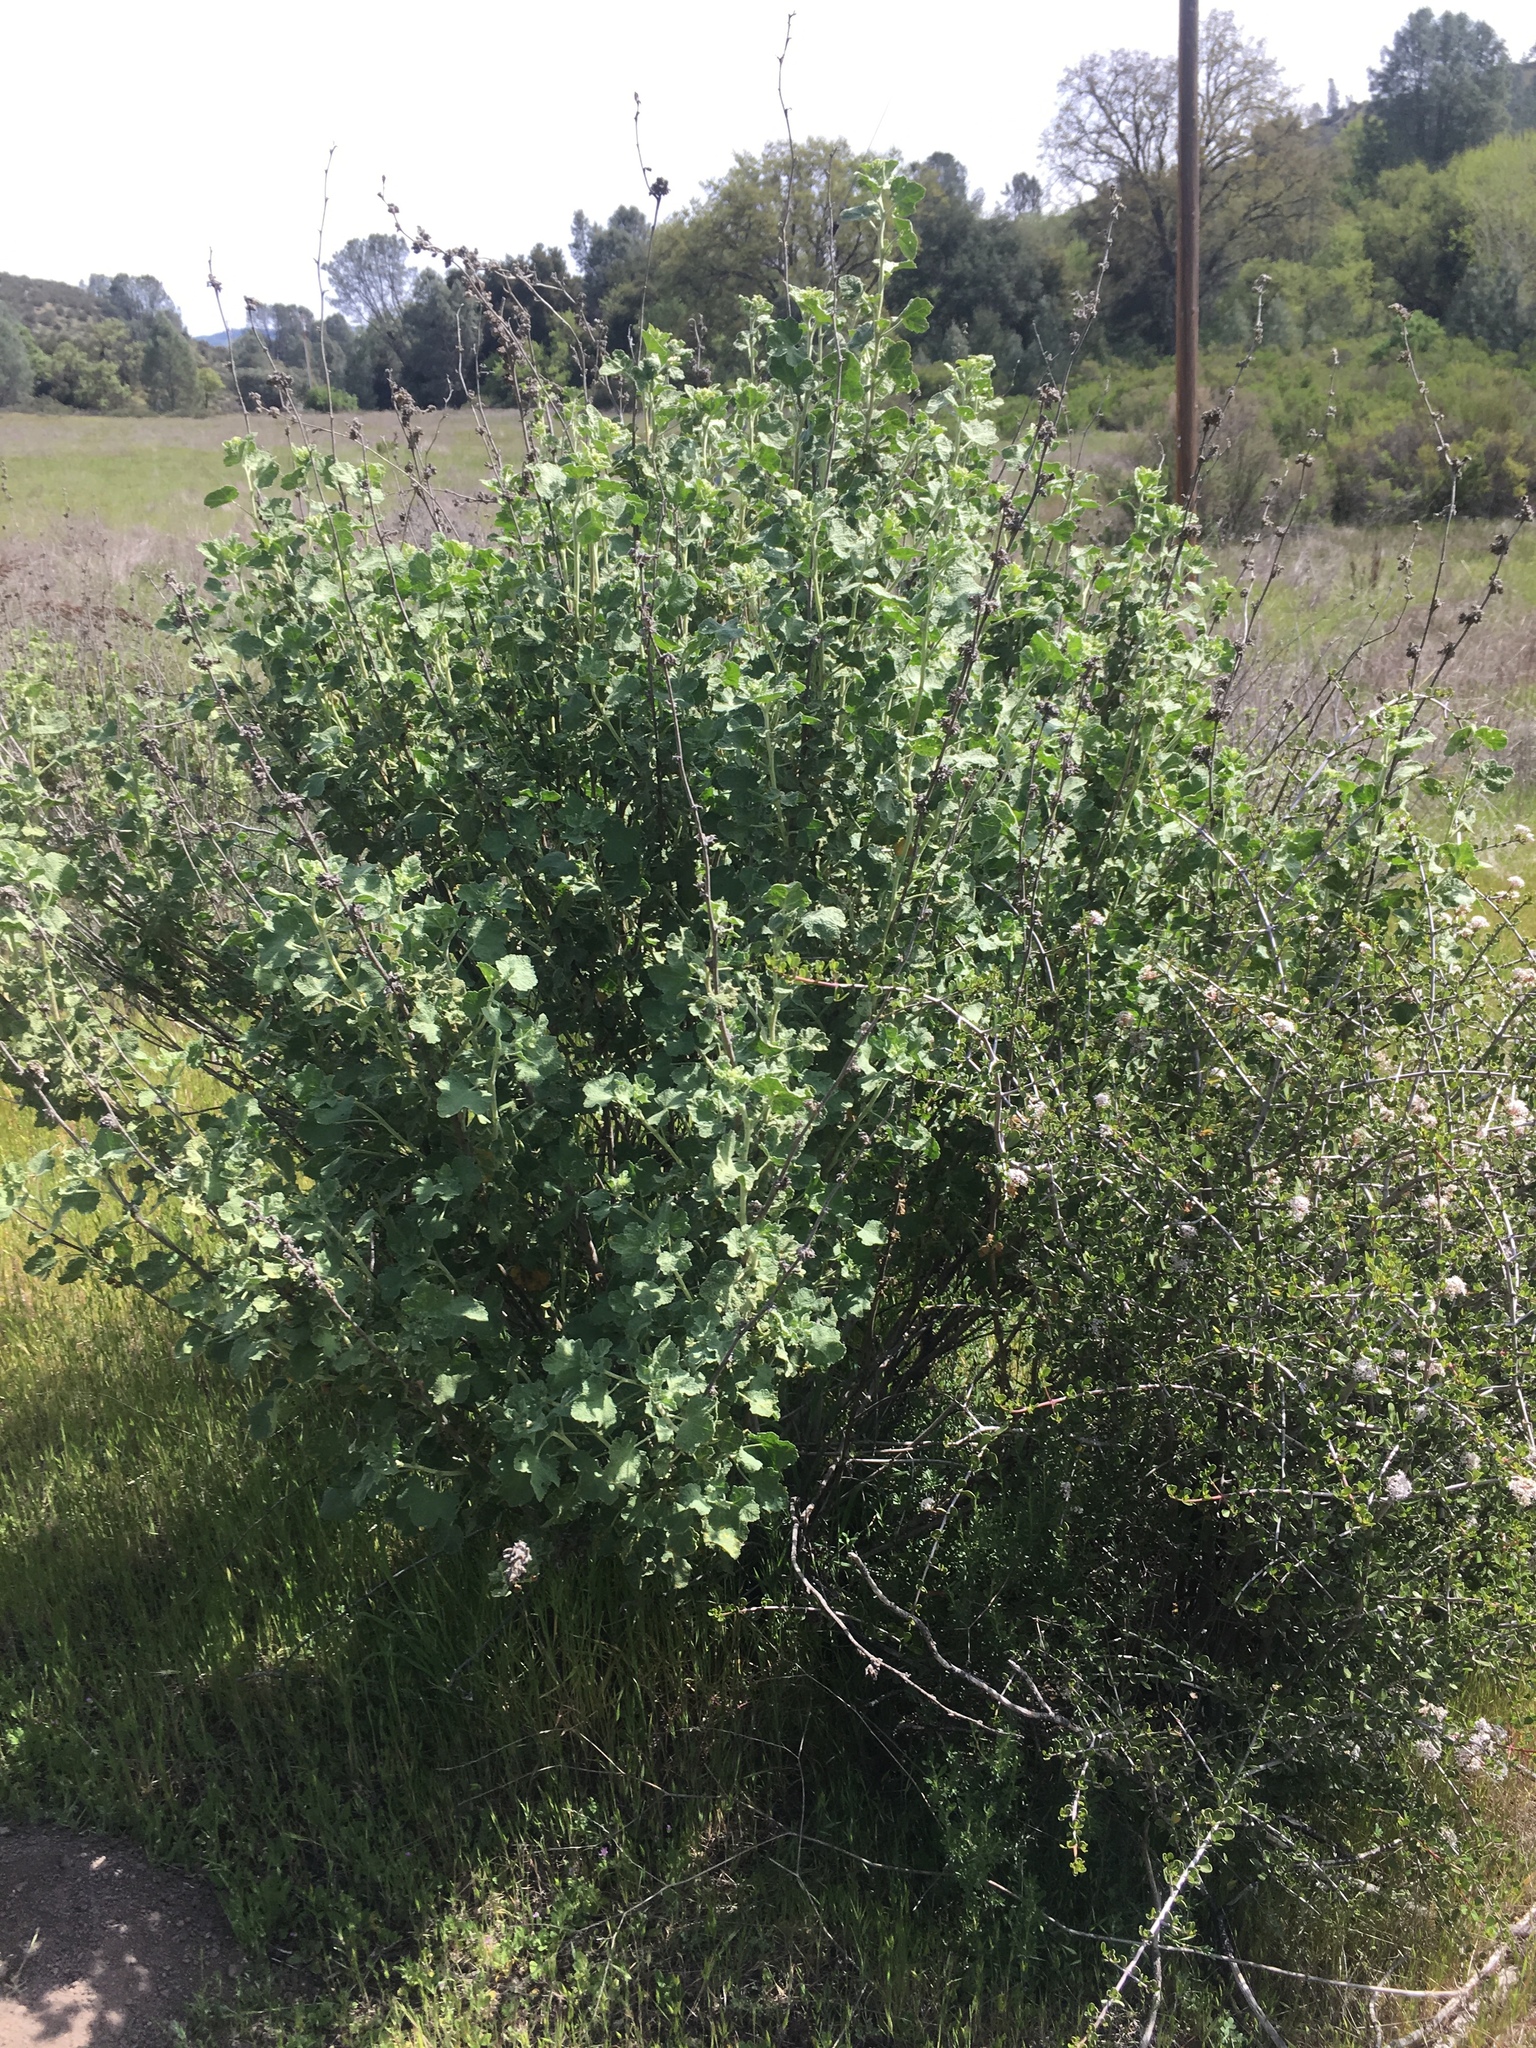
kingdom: Plantae
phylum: Tracheophyta
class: Magnoliopsida
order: Malvales
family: Malvaceae
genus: Malacothamnus
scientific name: Malacothamnus aboriginum
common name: Indian valley bush-mallow
